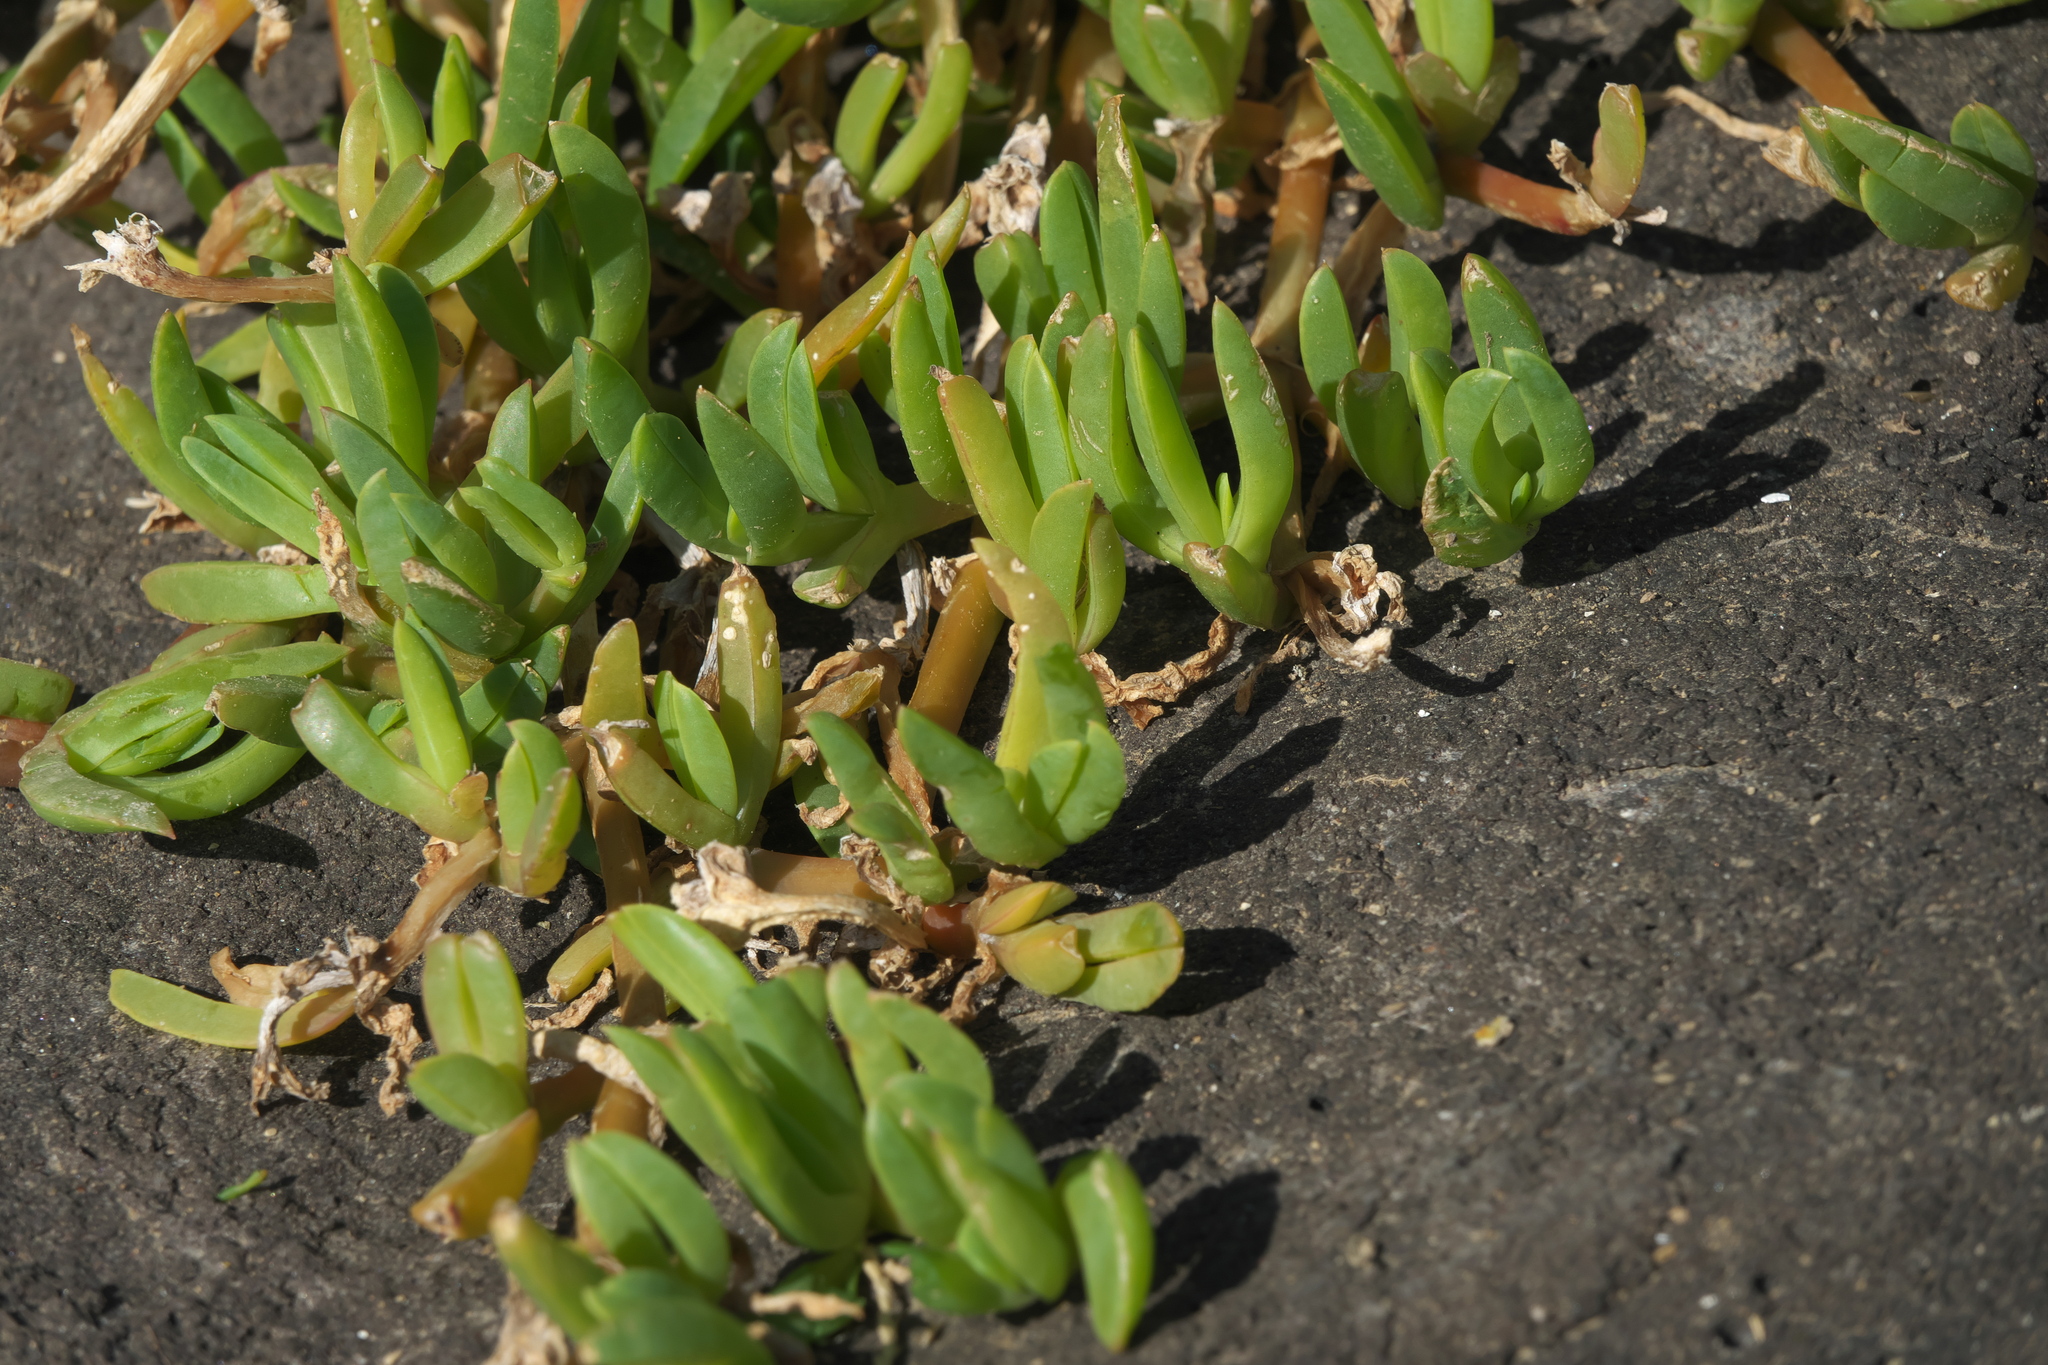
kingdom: Plantae
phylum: Tracheophyta
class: Magnoliopsida
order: Caryophyllales
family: Aizoaceae
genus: Disphyma
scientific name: Disphyma australe
